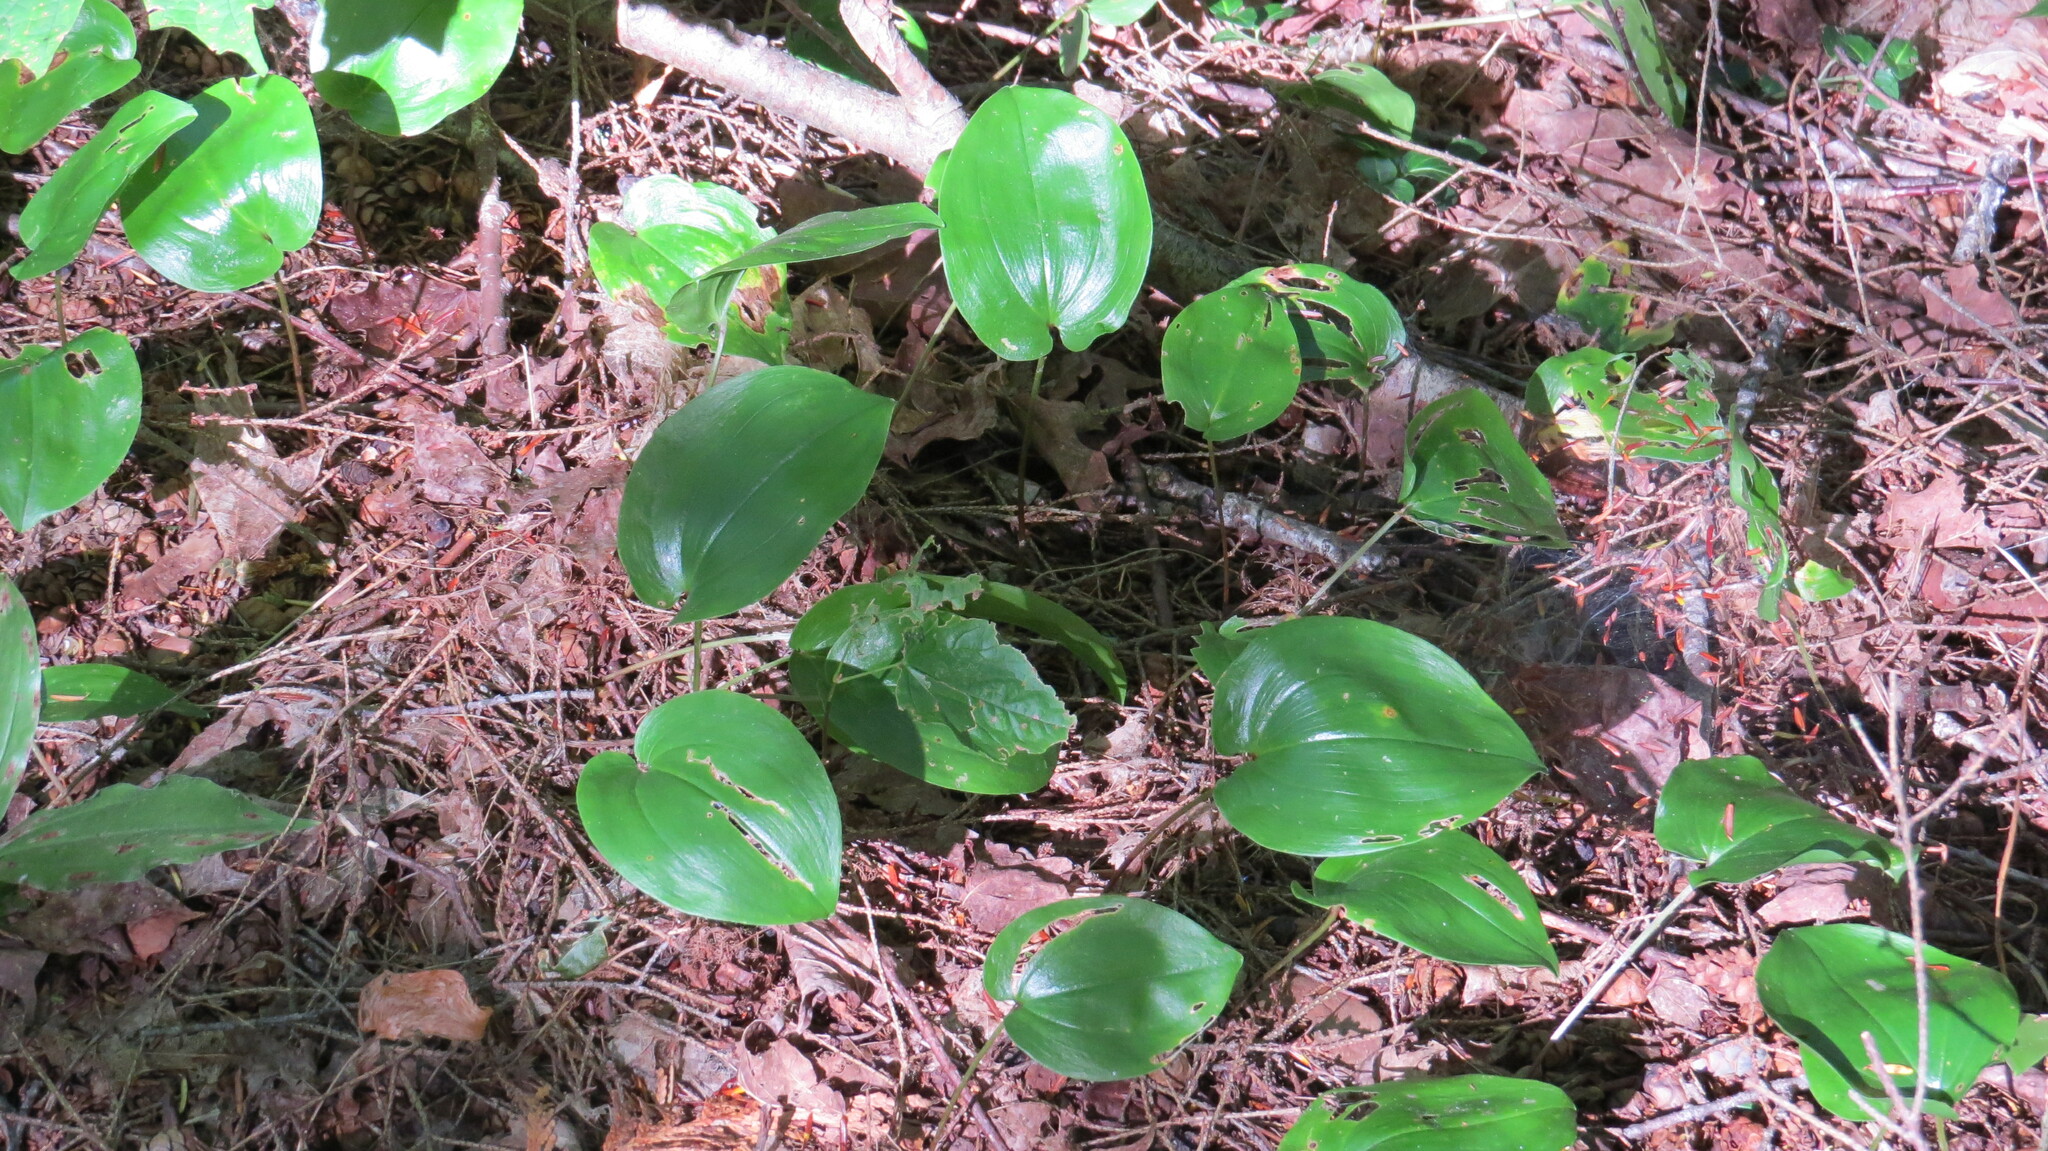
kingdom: Plantae
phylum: Tracheophyta
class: Liliopsida
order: Asparagales
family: Asparagaceae
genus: Maianthemum
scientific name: Maianthemum canadense
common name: False lily-of-the-valley
